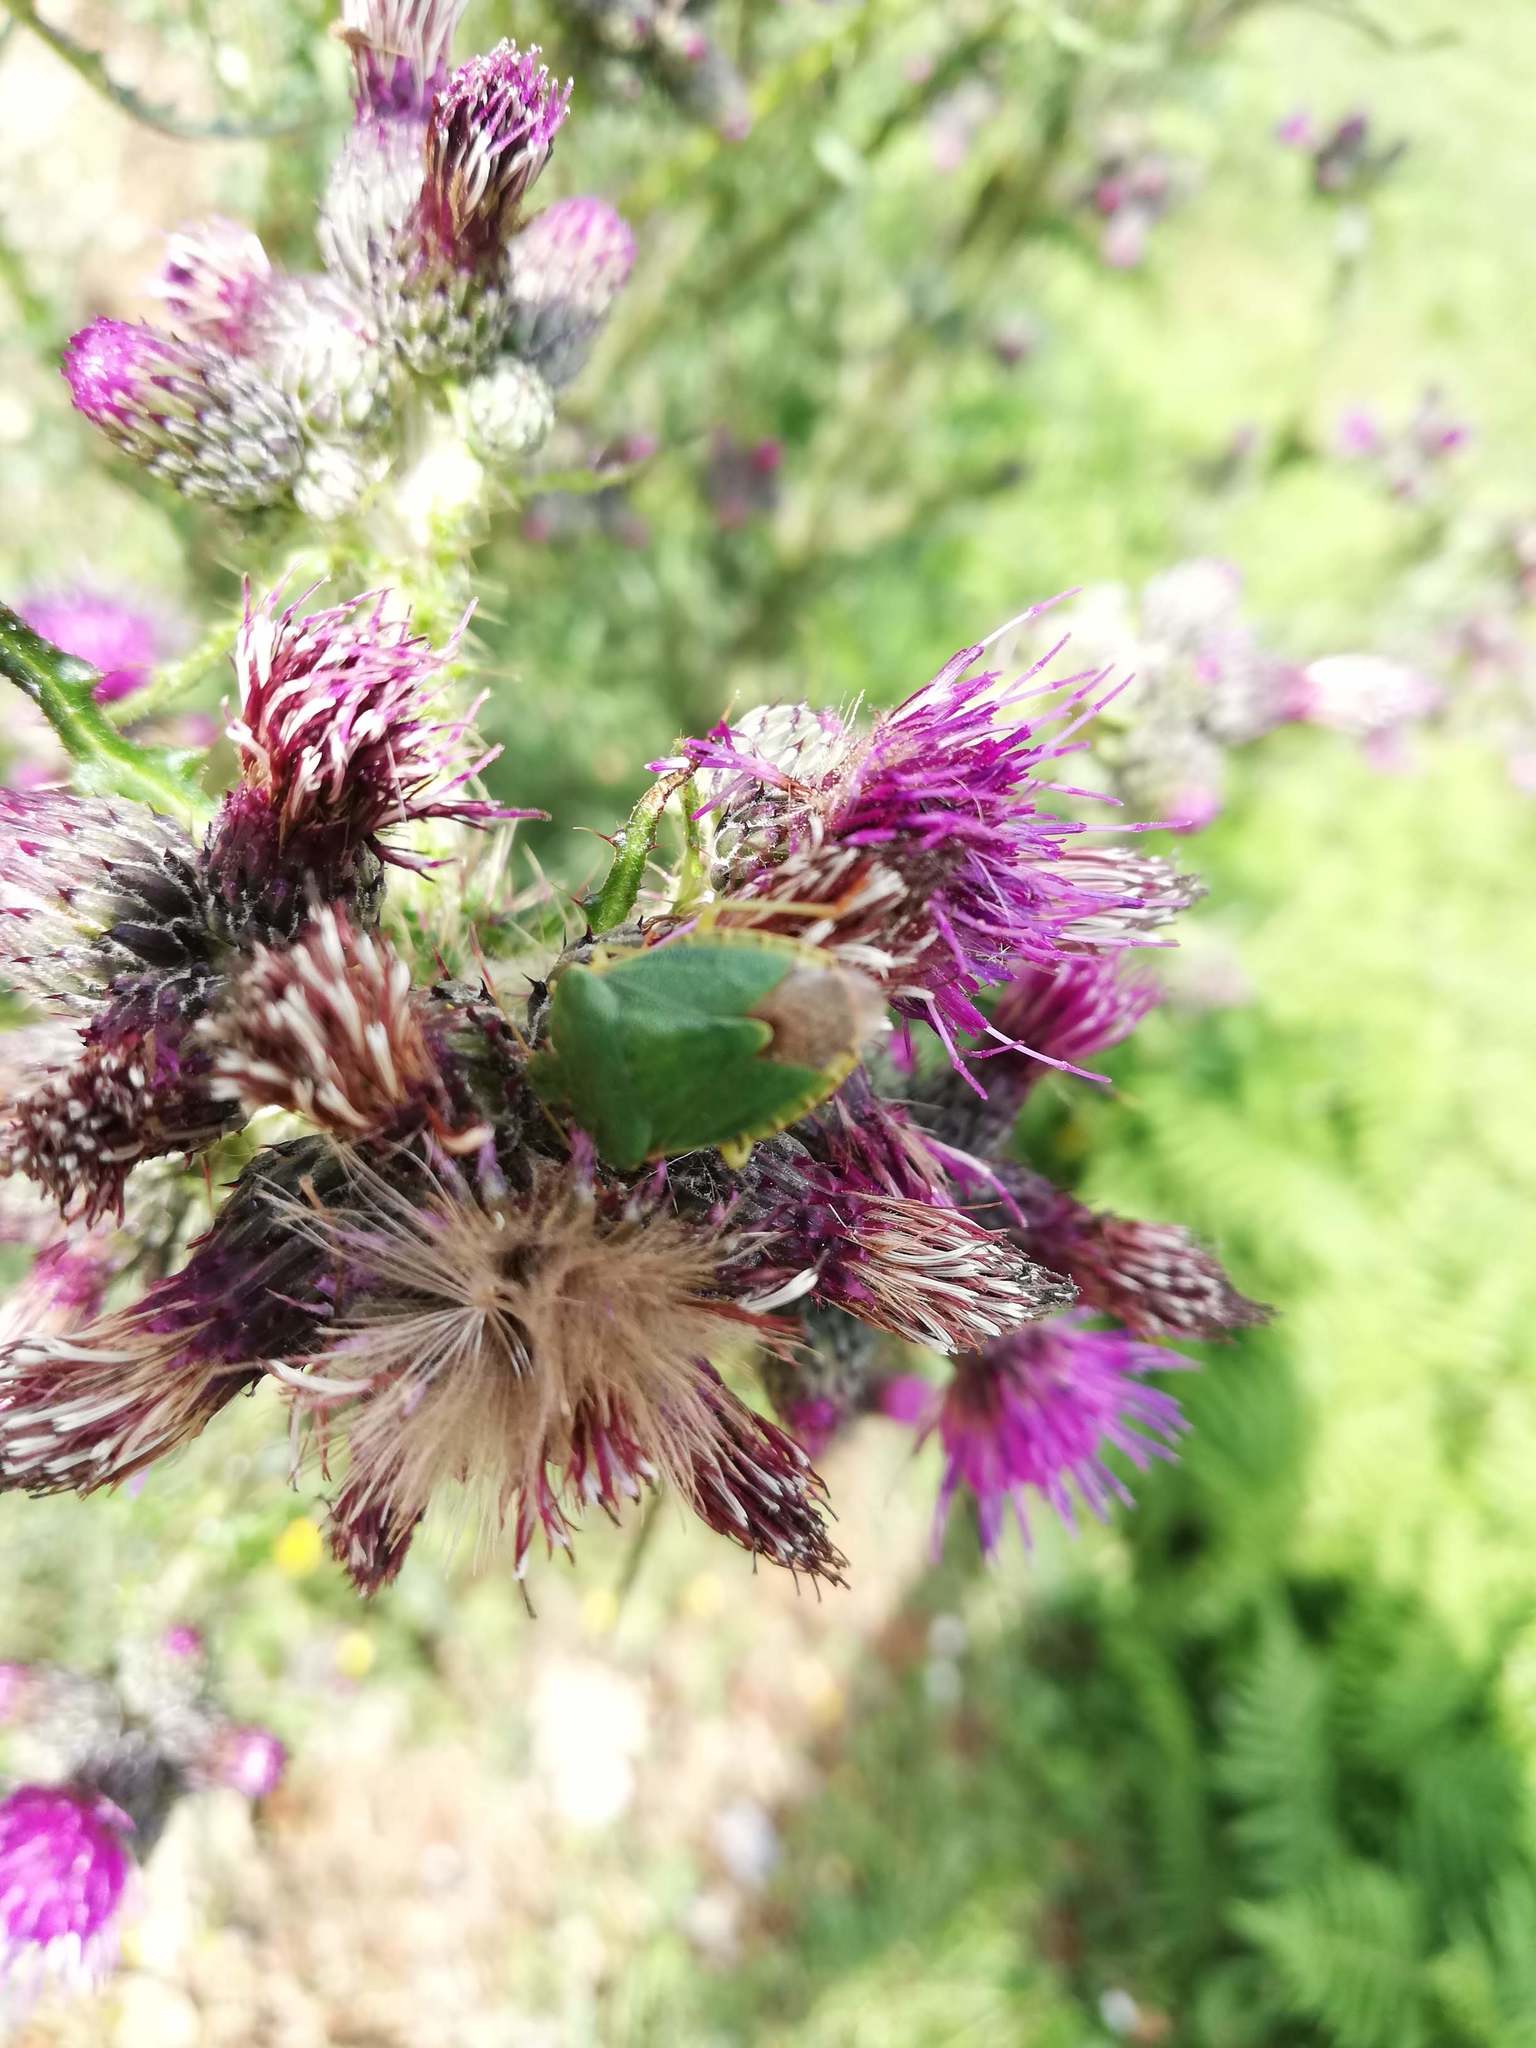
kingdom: Animalia
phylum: Arthropoda
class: Insecta
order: Hemiptera
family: Pentatomidae
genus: Palomena
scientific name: Palomena prasina
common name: Green shieldbug
